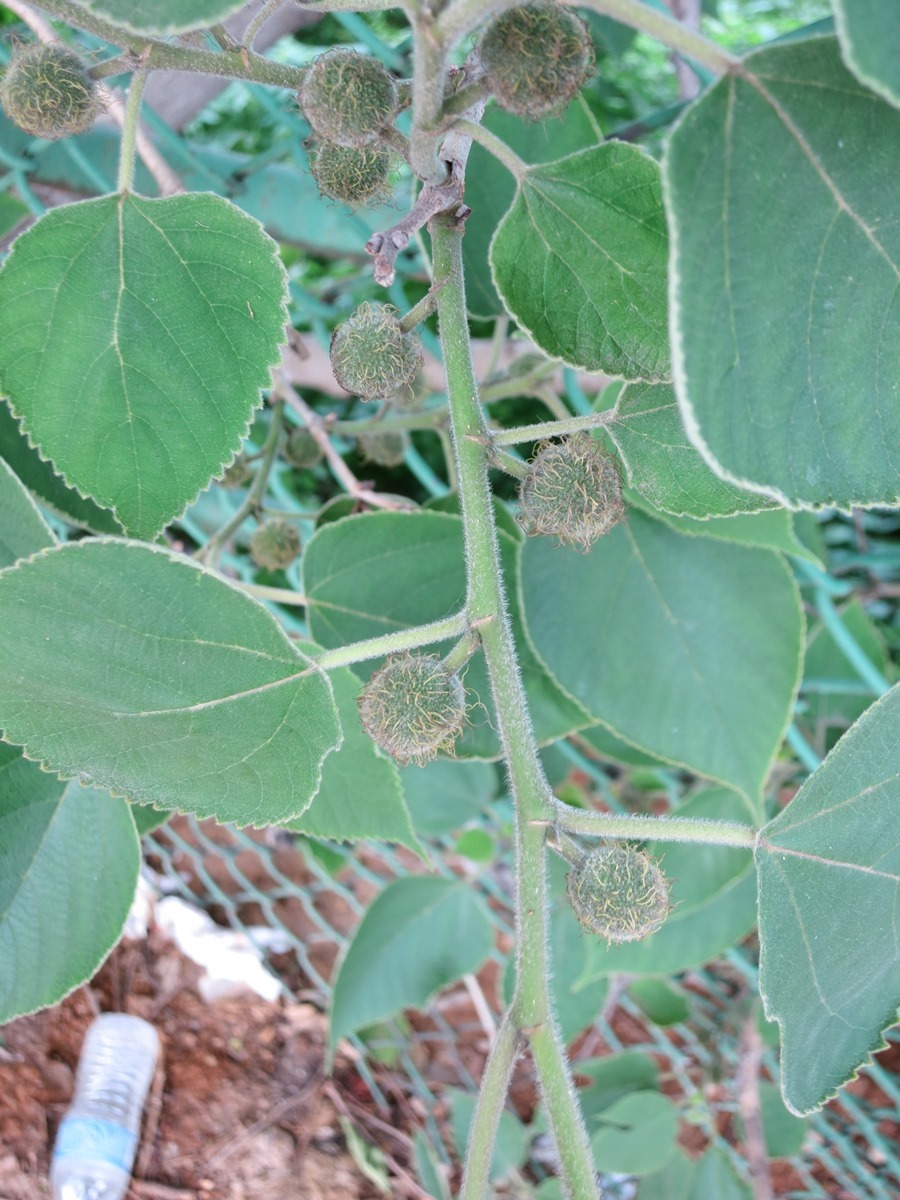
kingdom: Plantae
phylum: Tracheophyta
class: Magnoliopsida
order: Rosales
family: Moraceae
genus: Broussonetia
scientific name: Broussonetia papyrifera
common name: Paper mulberry
